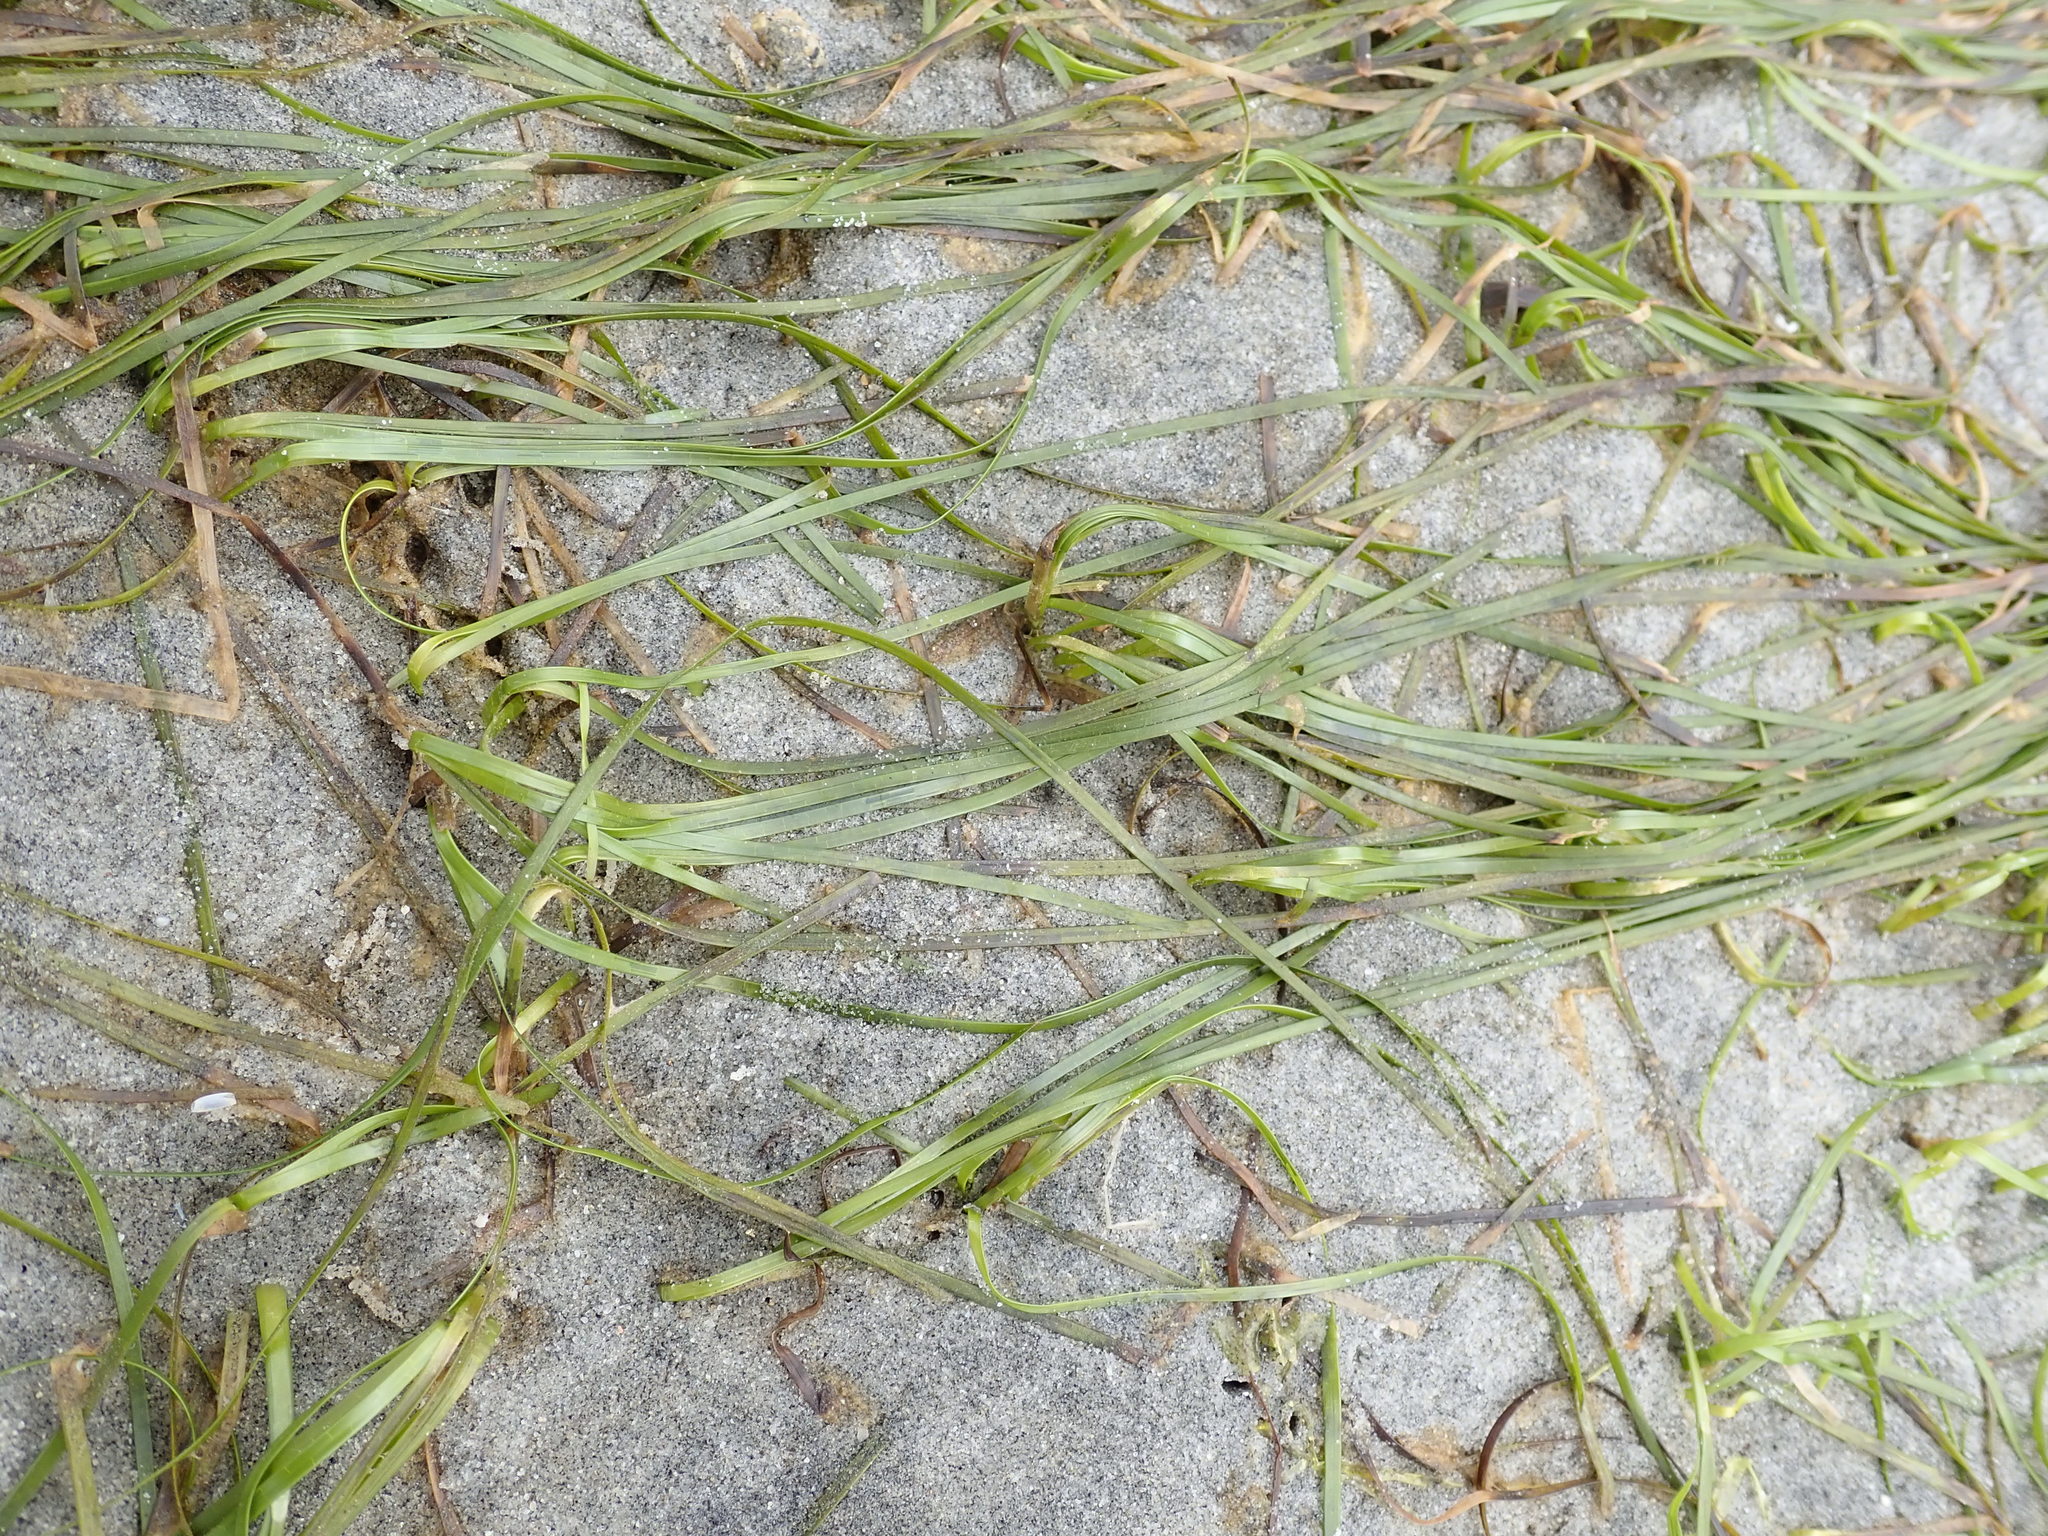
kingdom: Plantae
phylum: Tracheophyta
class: Liliopsida
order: Alismatales
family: Zosteraceae
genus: Zostera
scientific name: Zostera japonica
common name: Dwarf eelgrass
